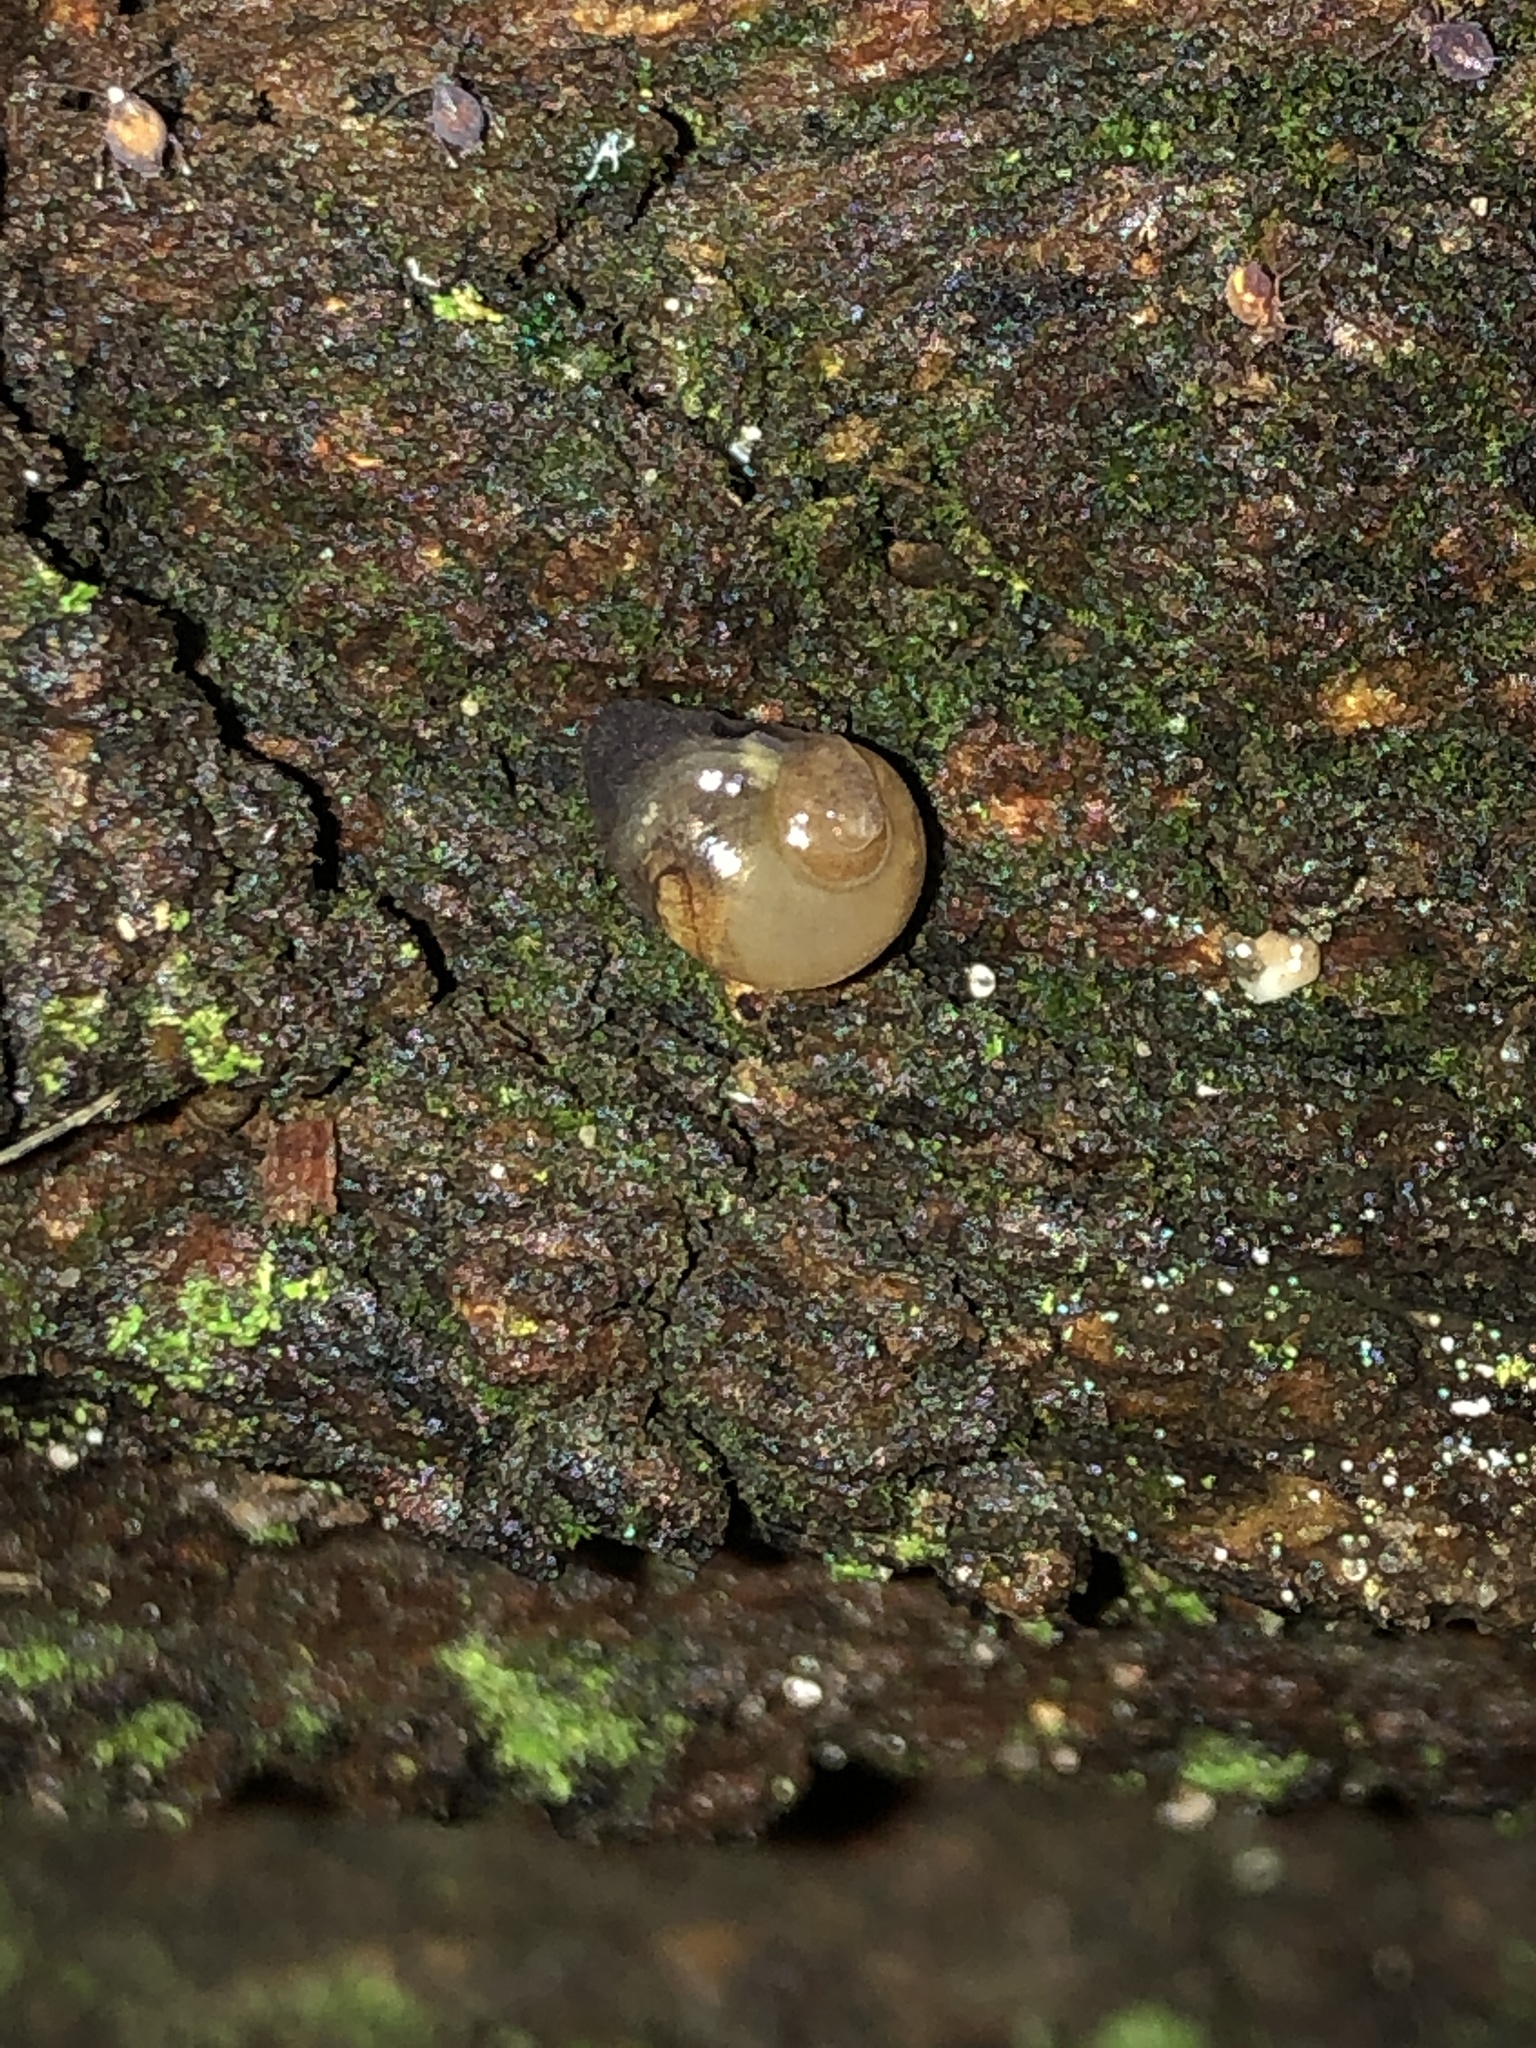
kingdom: Animalia
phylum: Mollusca
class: Gastropoda
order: Stylommatophora
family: Vitrinidae
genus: Vitrina
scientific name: Vitrina pellucida
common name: Pellucid glass snail
